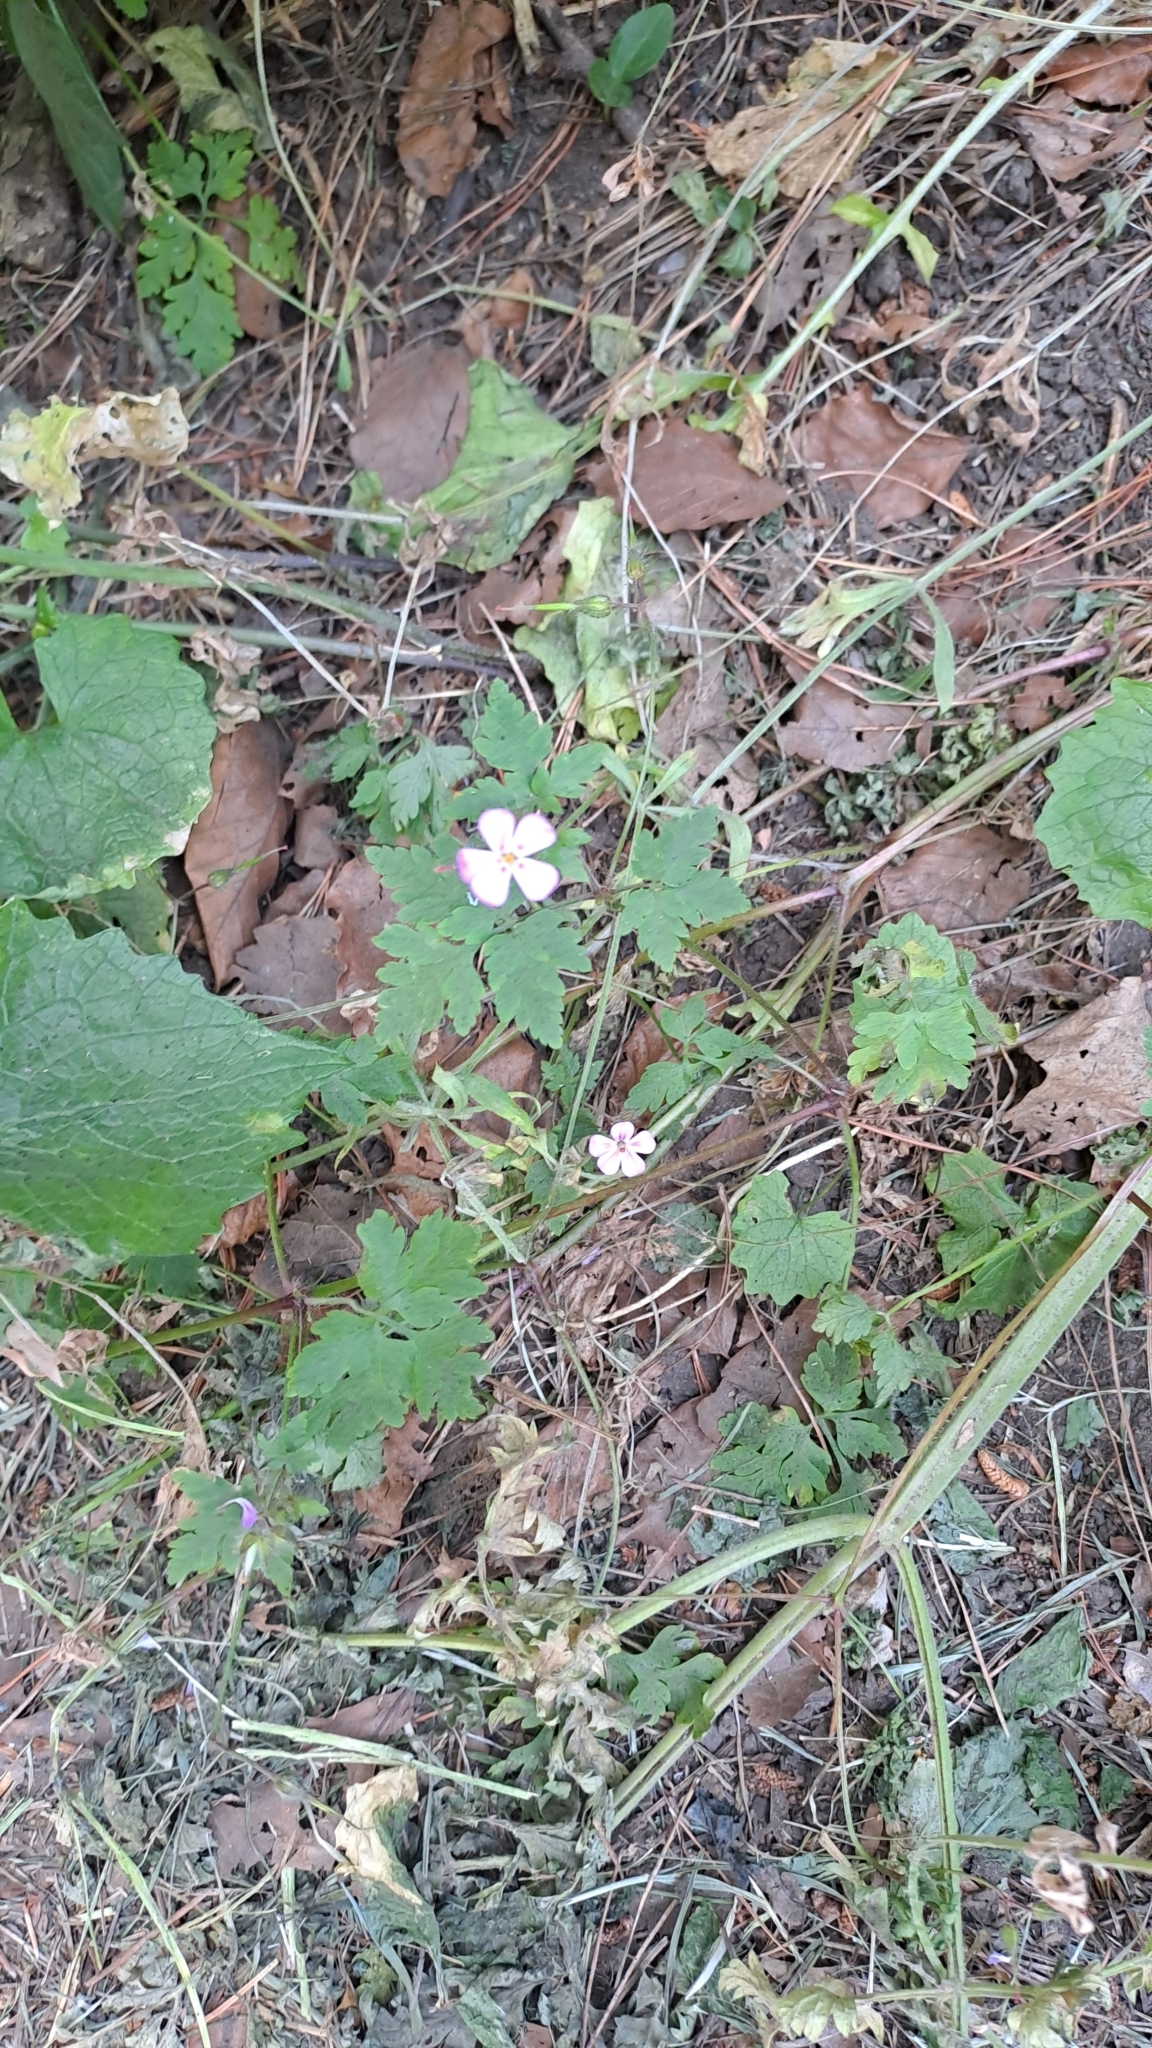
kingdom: Plantae
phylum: Tracheophyta
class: Magnoliopsida
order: Geraniales
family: Geraniaceae
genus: Geranium
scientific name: Geranium robertianum
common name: Herb-robert
